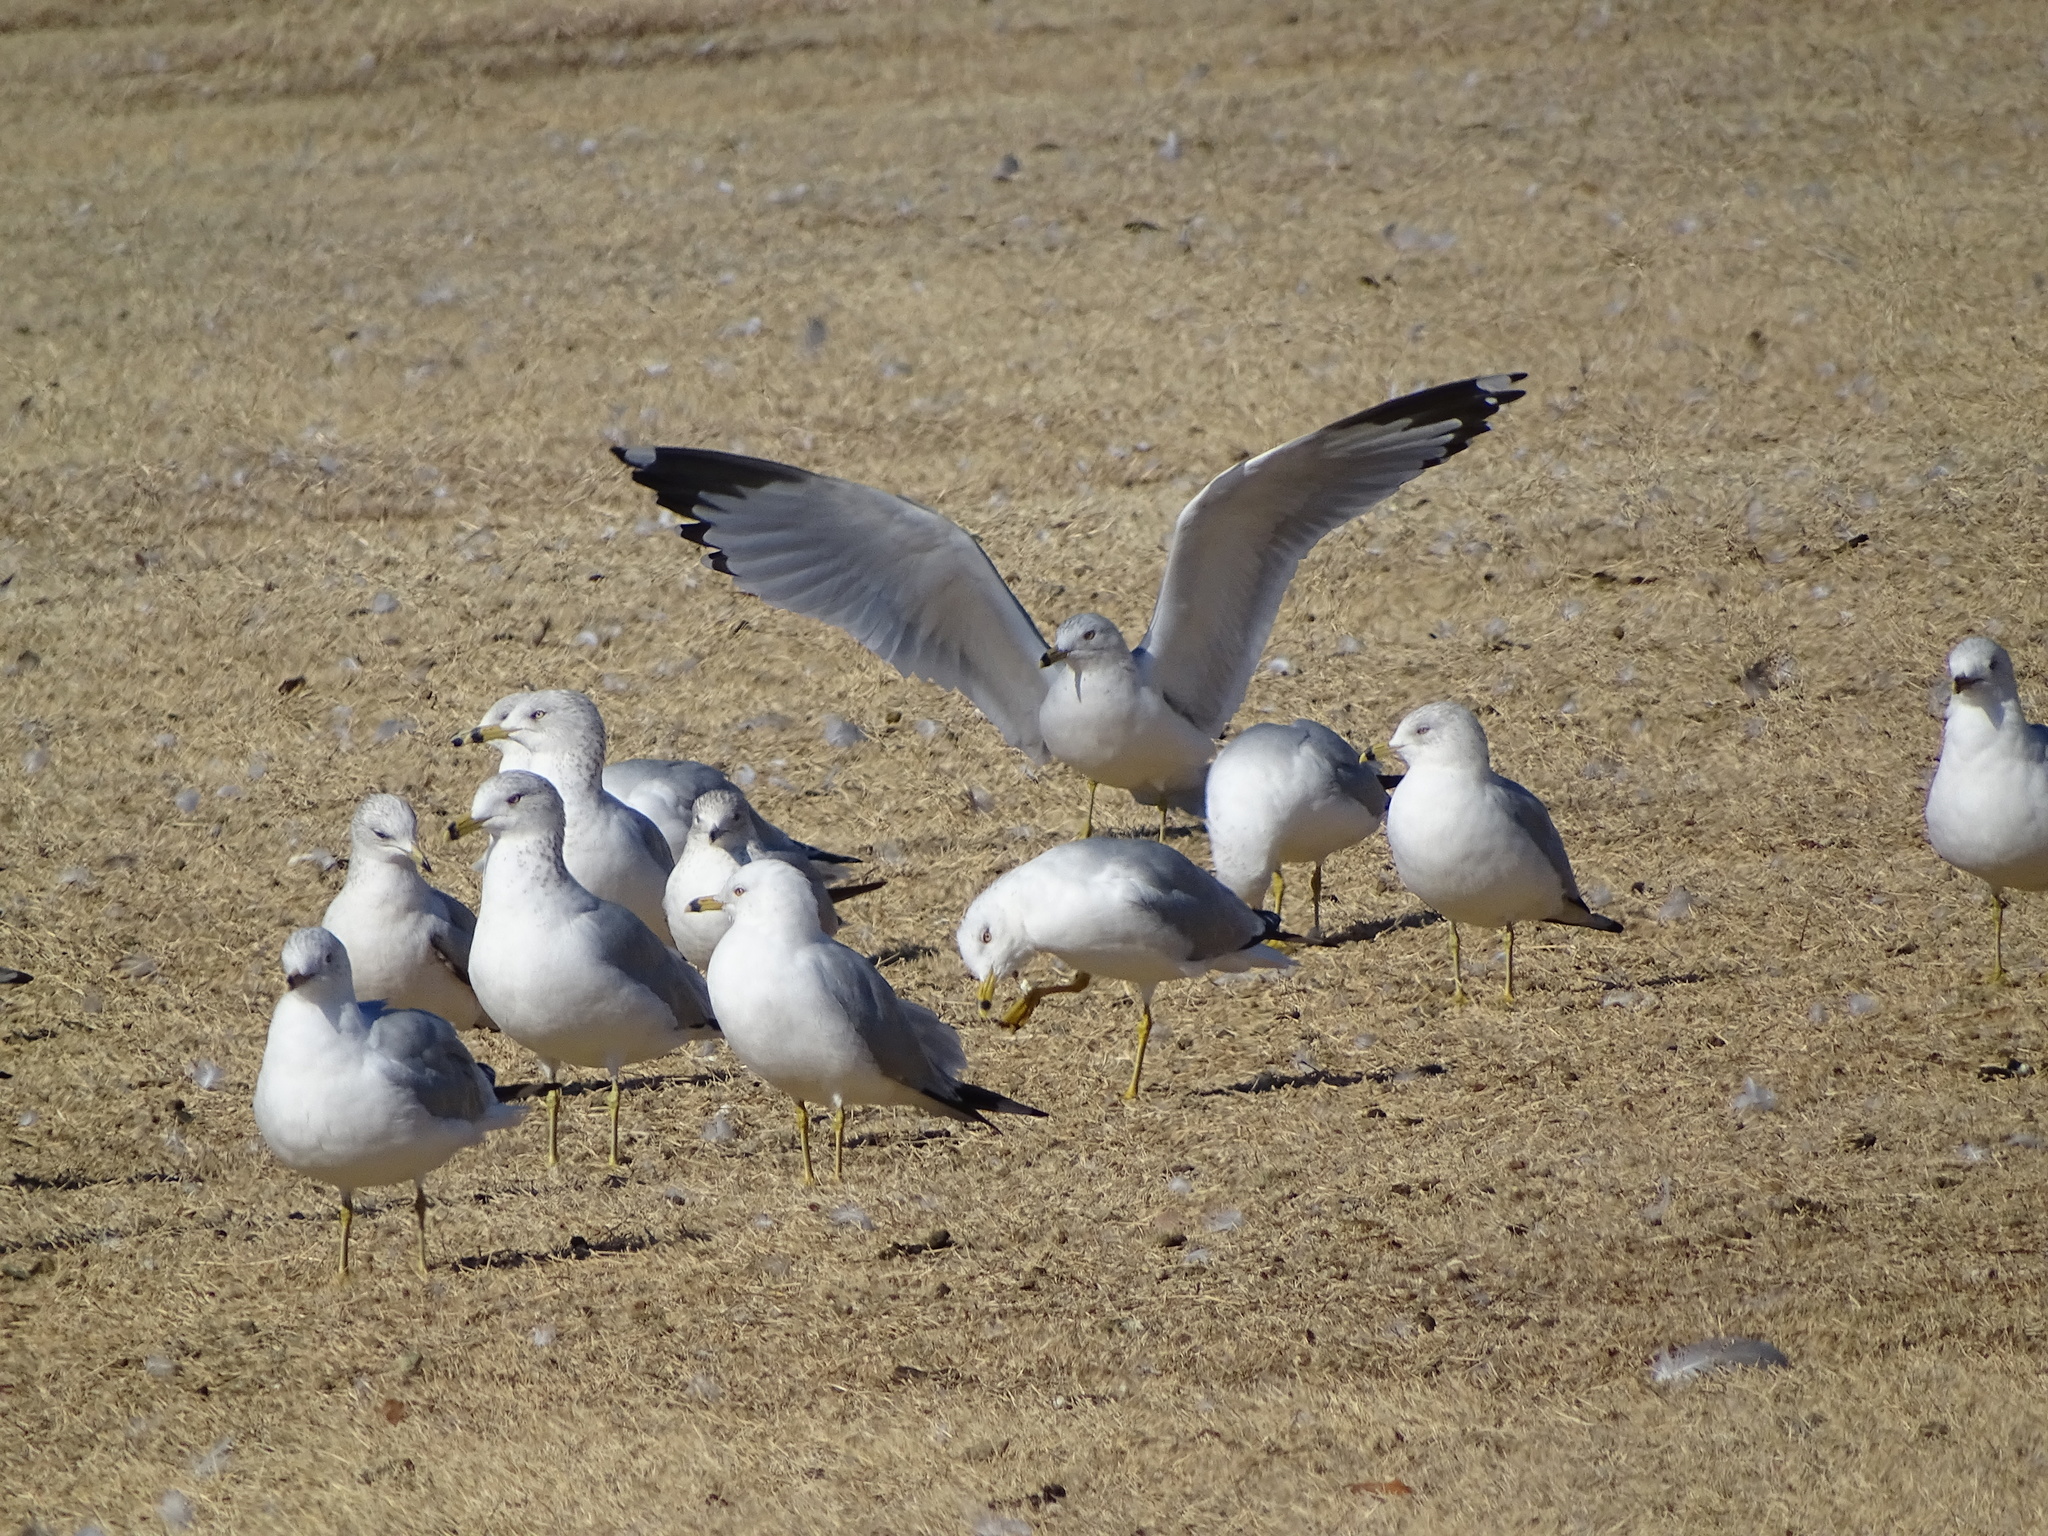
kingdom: Animalia
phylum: Chordata
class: Aves
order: Charadriiformes
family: Laridae
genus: Larus
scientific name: Larus delawarensis
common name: Ring-billed gull
